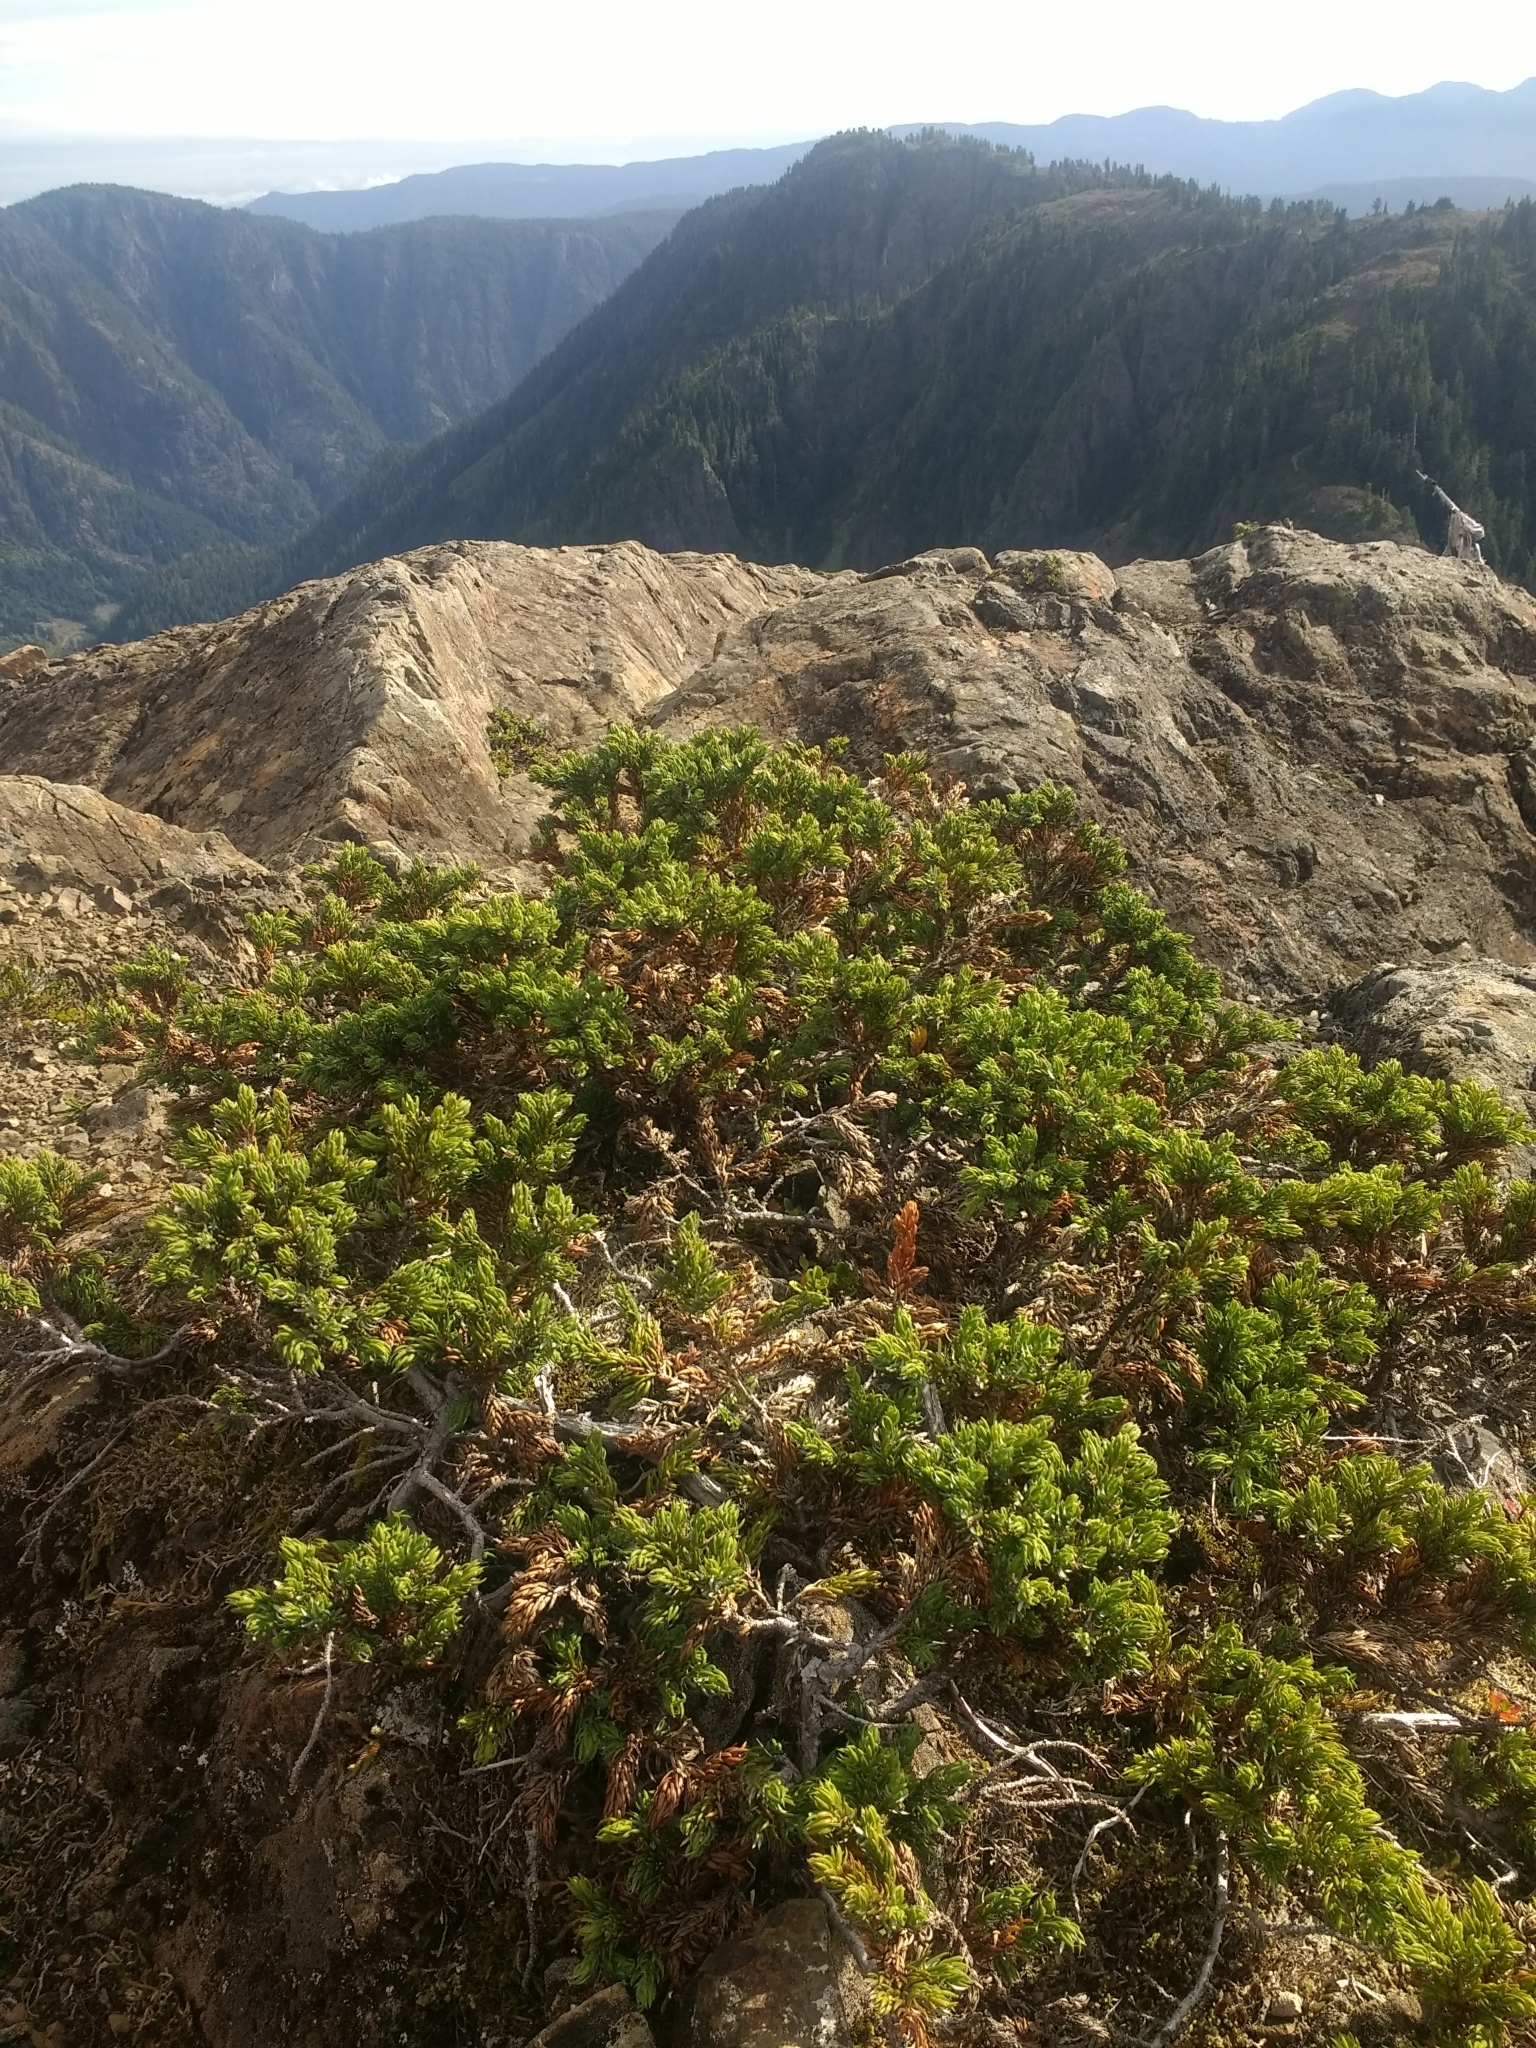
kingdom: Plantae
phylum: Tracheophyta
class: Pinopsida
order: Pinales
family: Cupressaceae
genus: Juniperus
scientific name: Juniperus communis
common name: Common juniper
